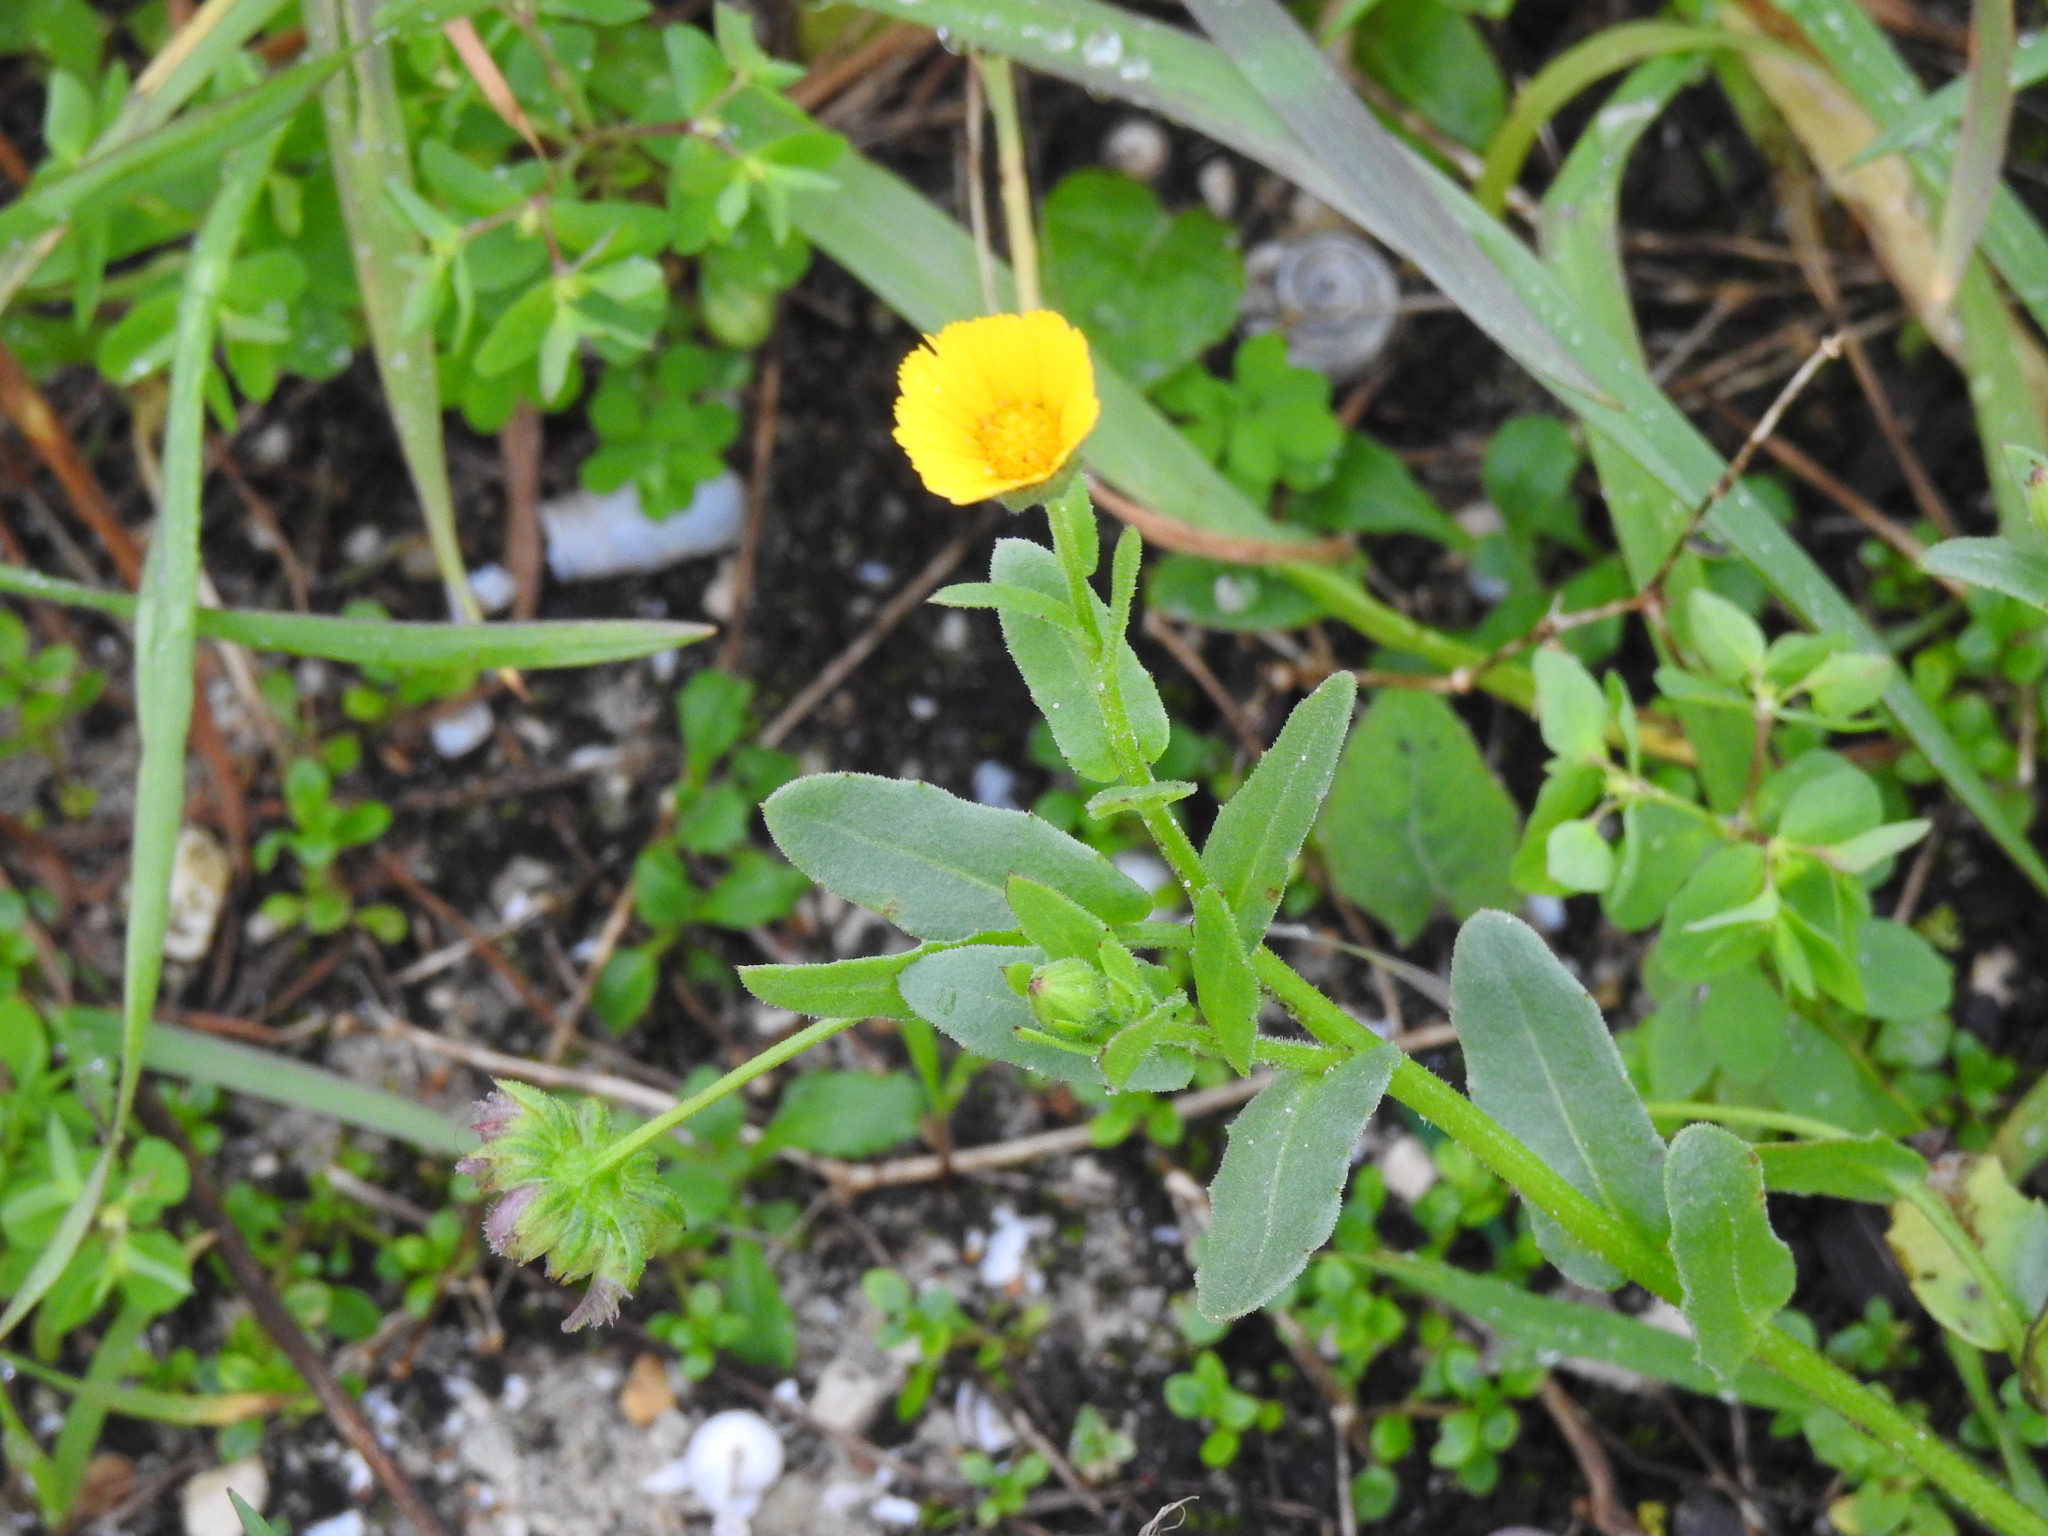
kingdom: Plantae
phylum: Tracheophyta
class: Magnoliopsida
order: Asterales
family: Asteraceae
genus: Calendula
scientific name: Calendula arvensis
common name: Field marigold
